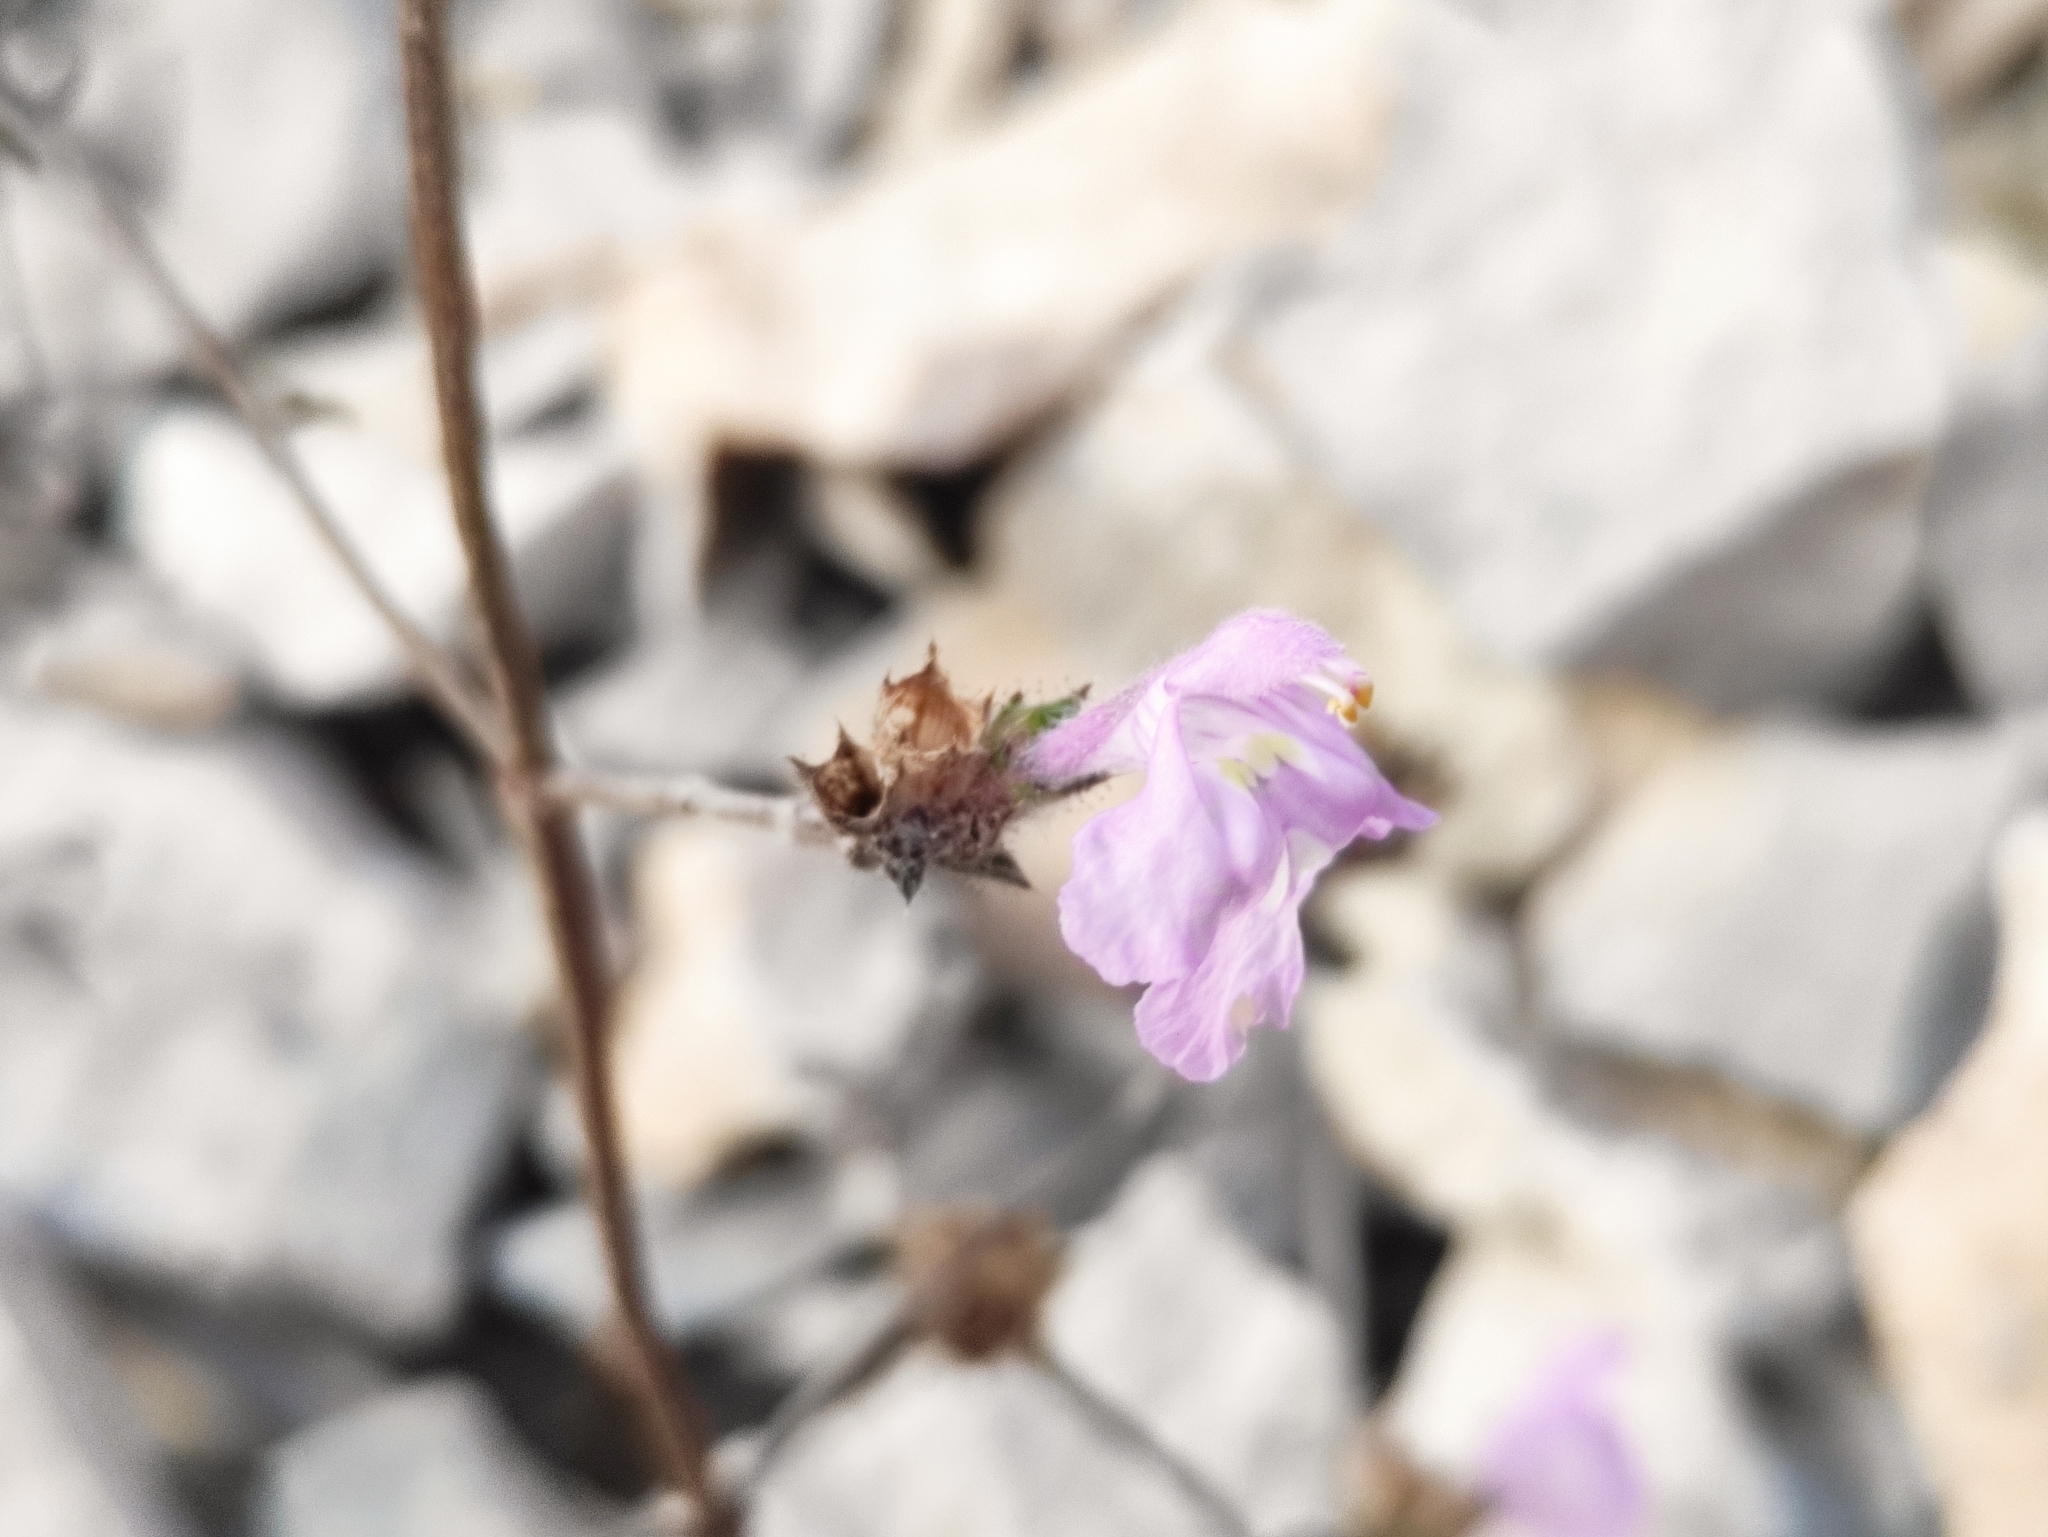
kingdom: Plantae
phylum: Tracheophyta
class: Magnoliopsida
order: Lamiales
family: Lamiaceae
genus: Galeopsis
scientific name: Galeopsis angustifolia
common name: Red hemp-nettle
